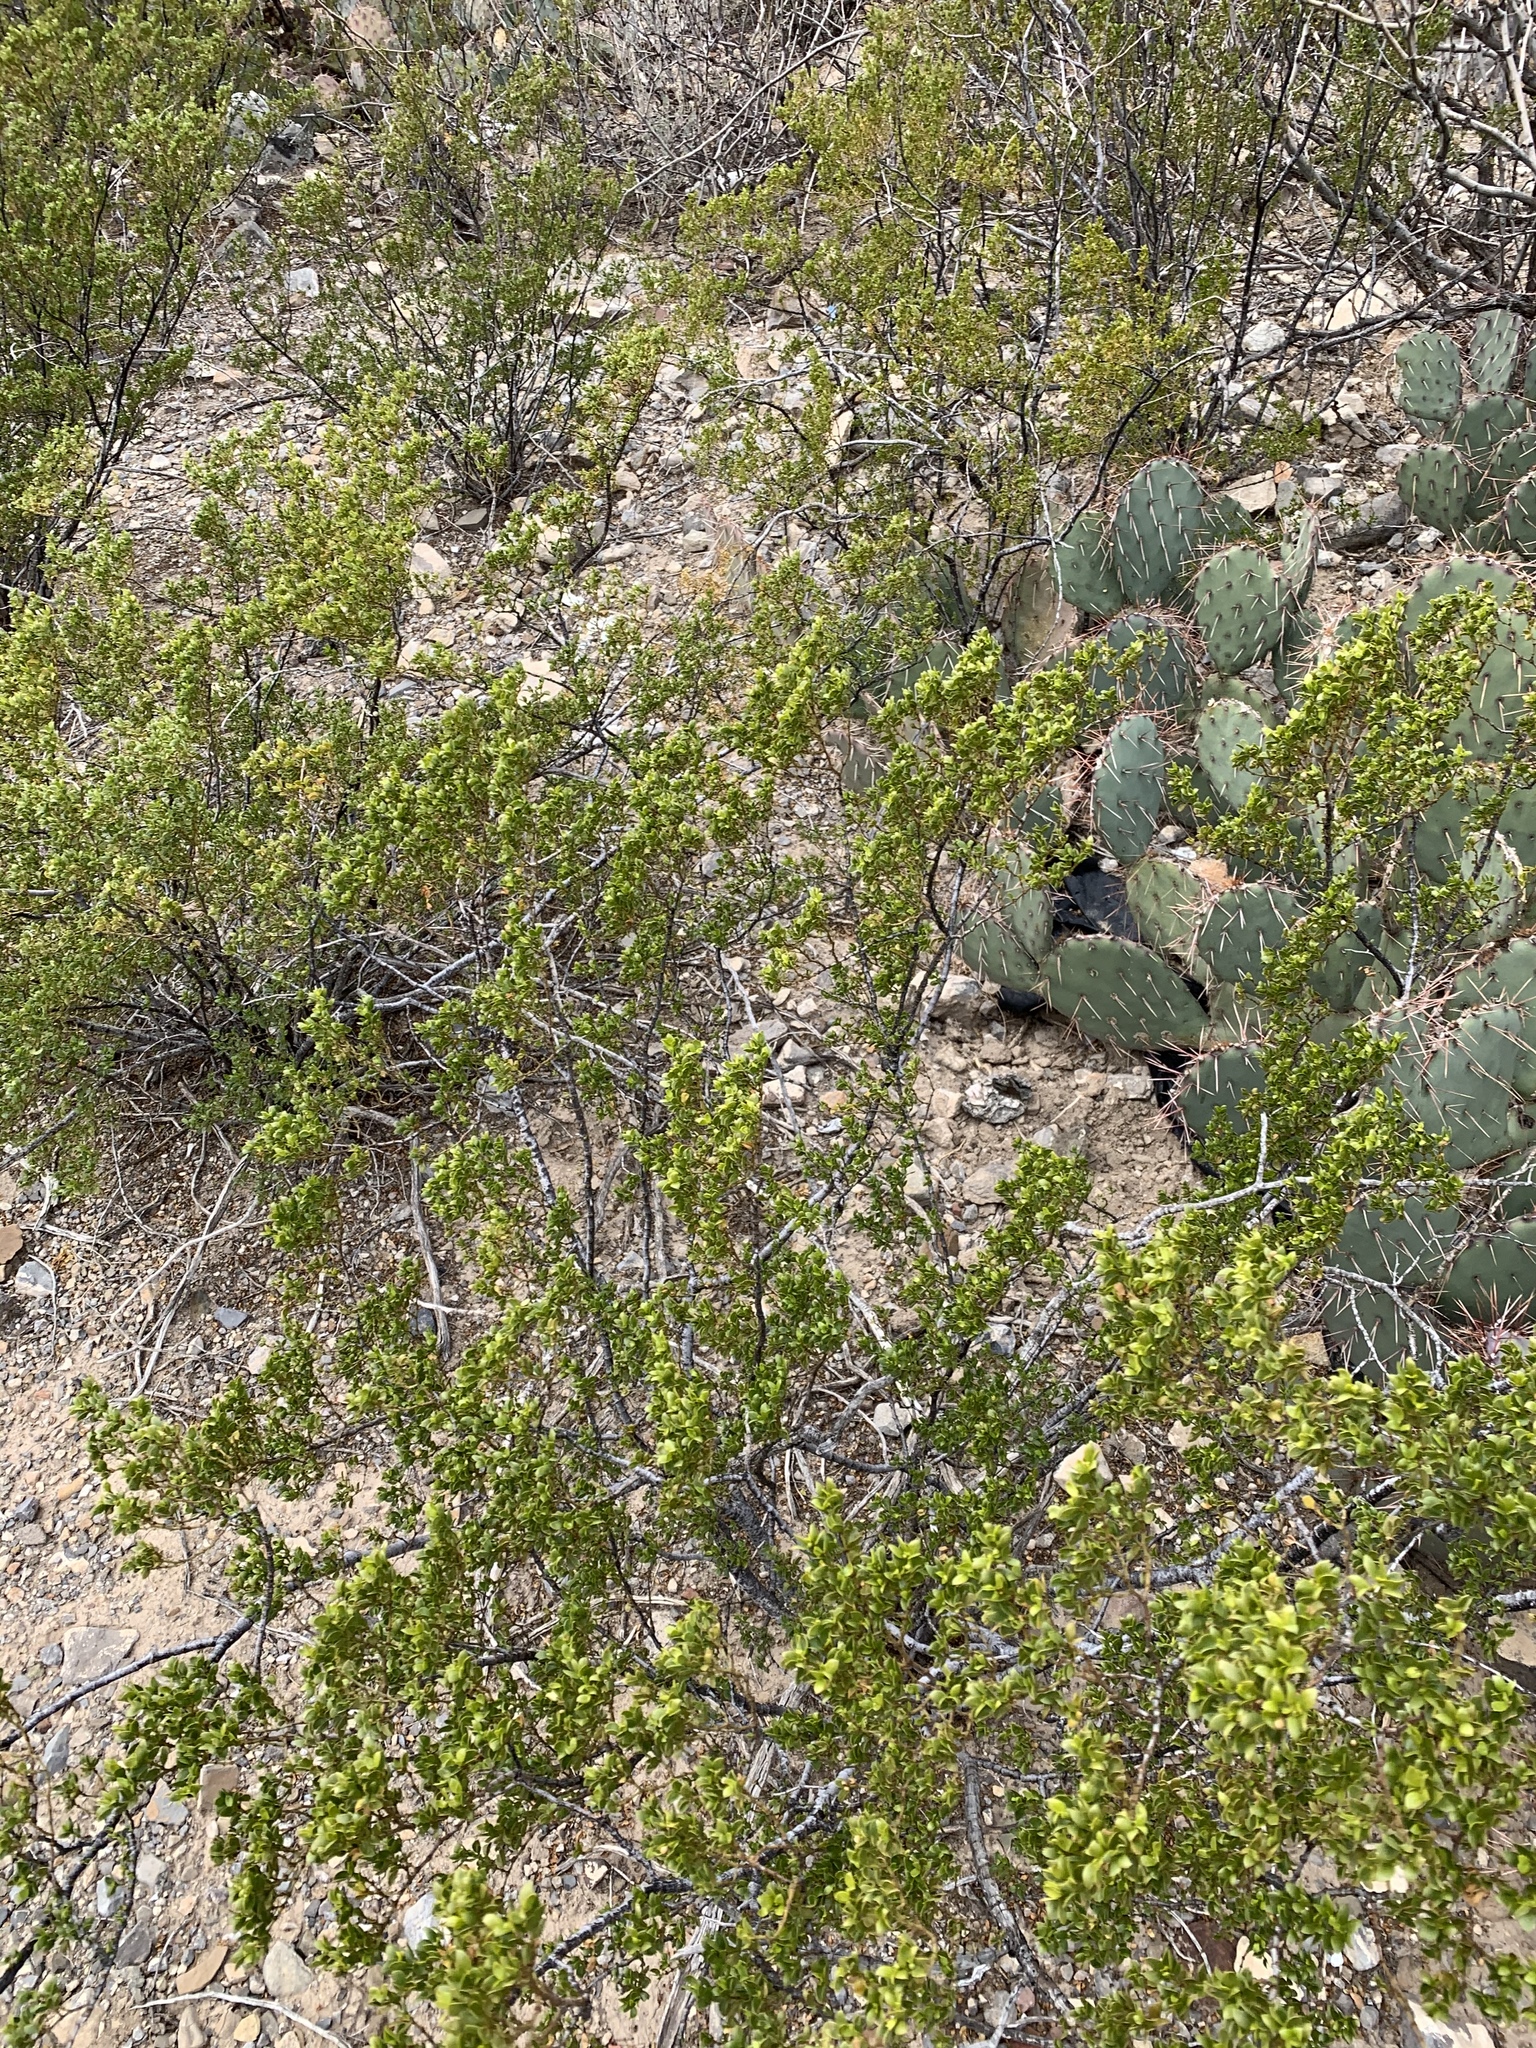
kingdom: Plantae
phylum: Tracheophyta
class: Magnoliopsida
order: Zygophyllales
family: Zygophyllaceae
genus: Larrea
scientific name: Larrea tridentata
